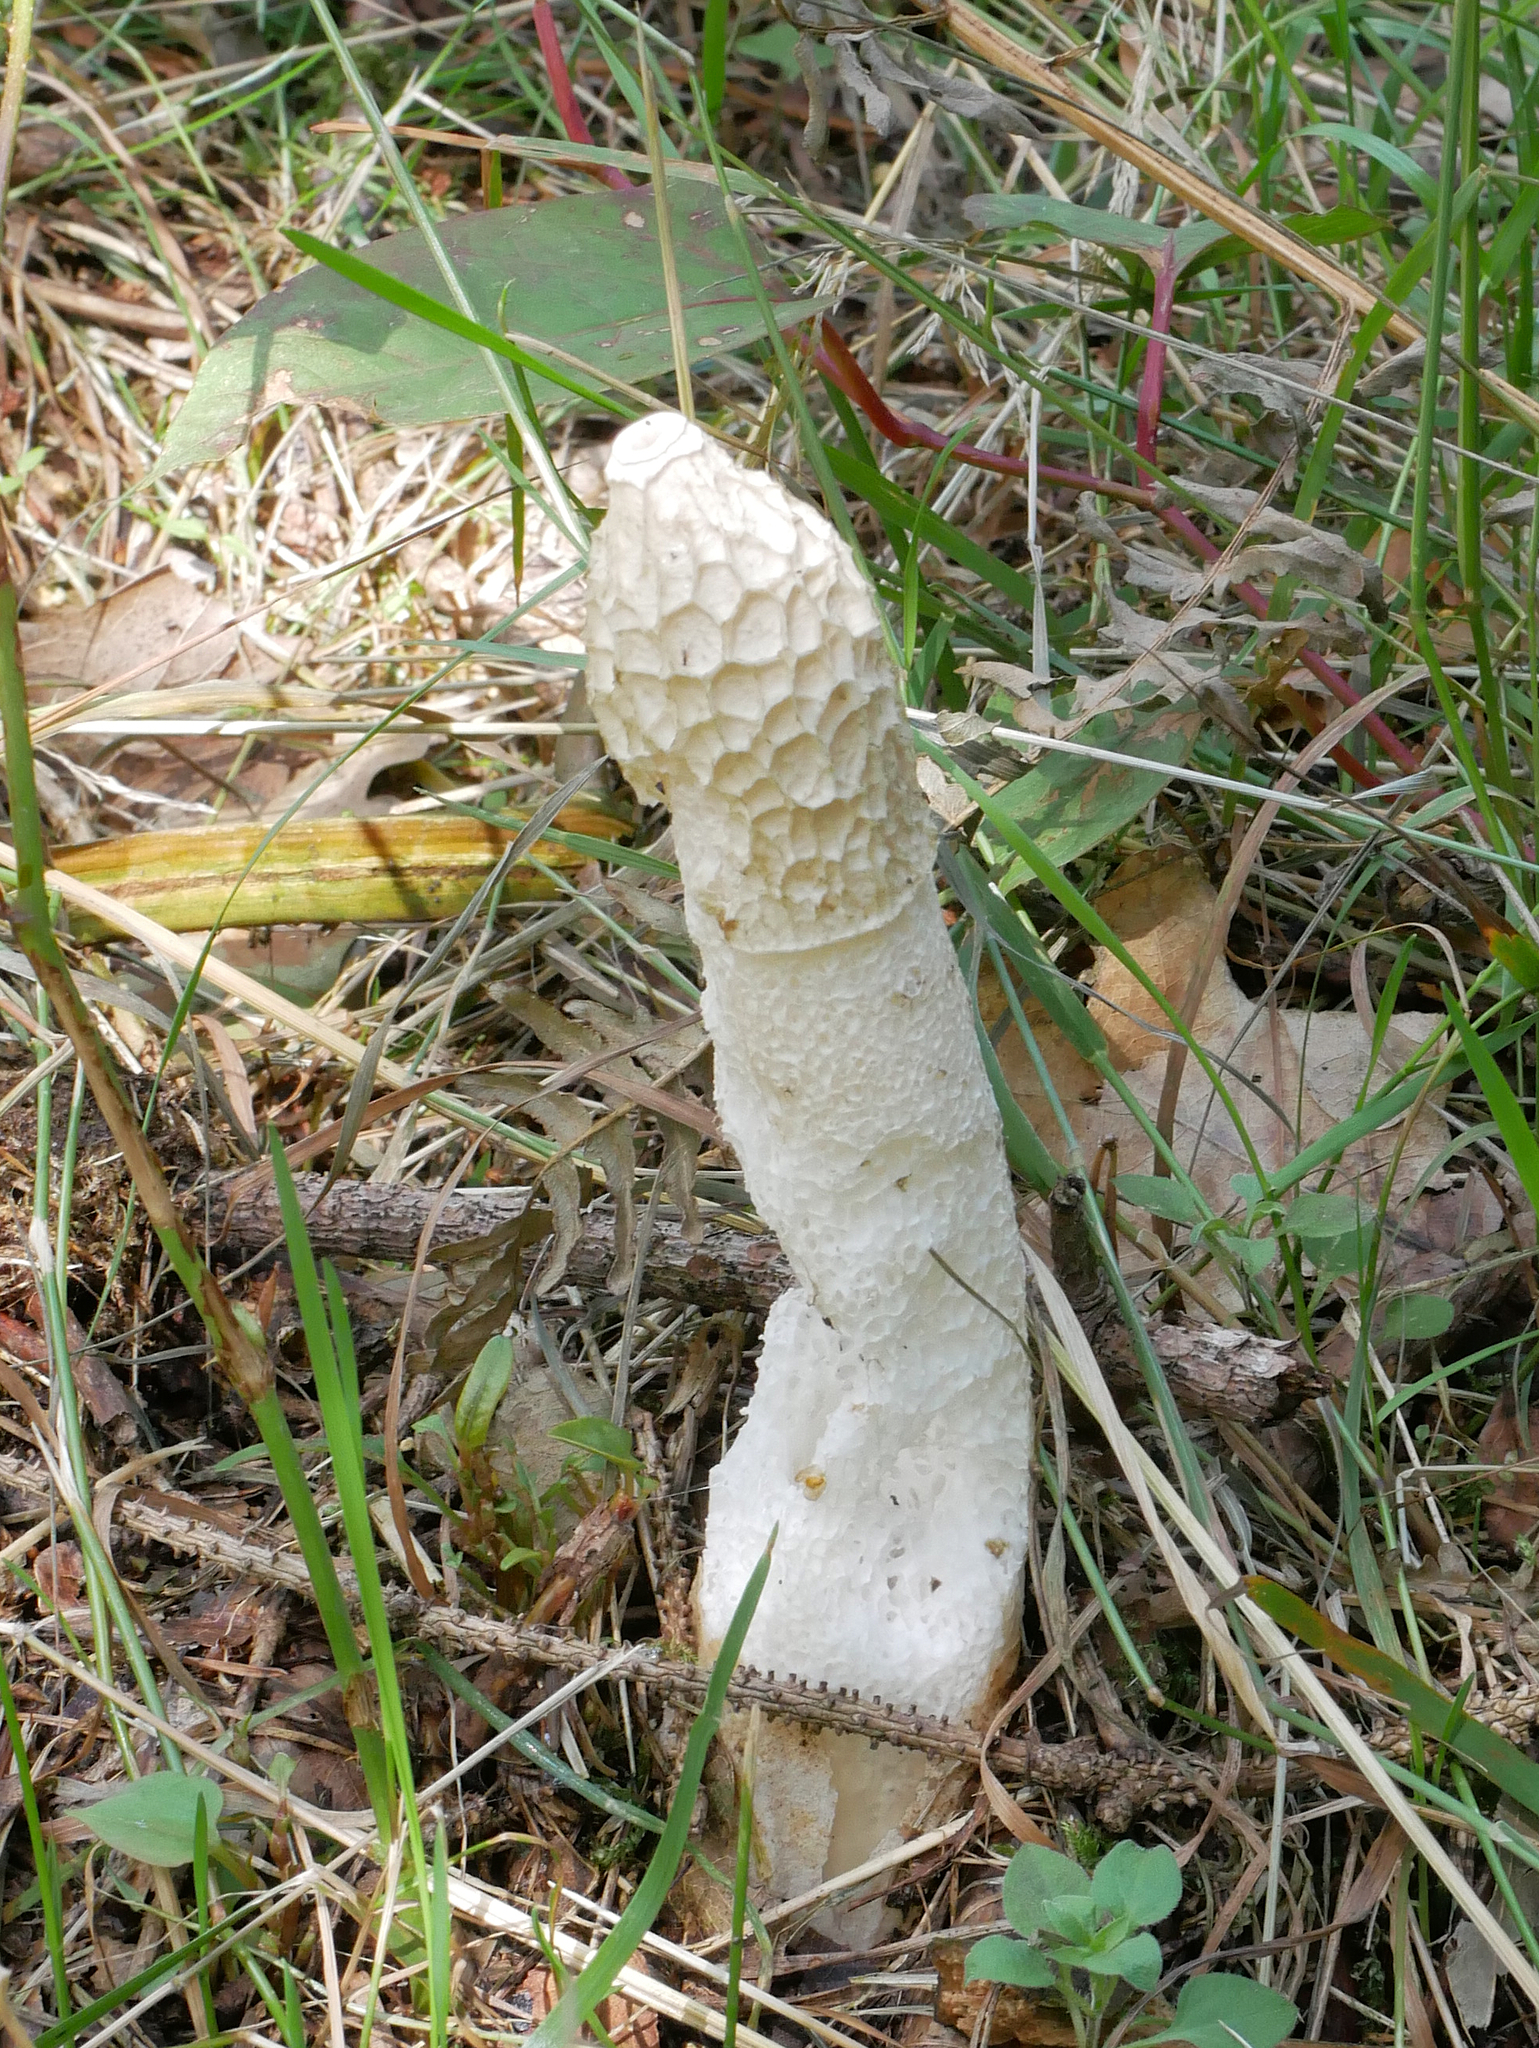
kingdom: Fungi
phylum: Basidiomycota
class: Agaricomycetes
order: Phallales
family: Phallaceae
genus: Phallus
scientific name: Phallus impudicus
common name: Common stinkhorn
